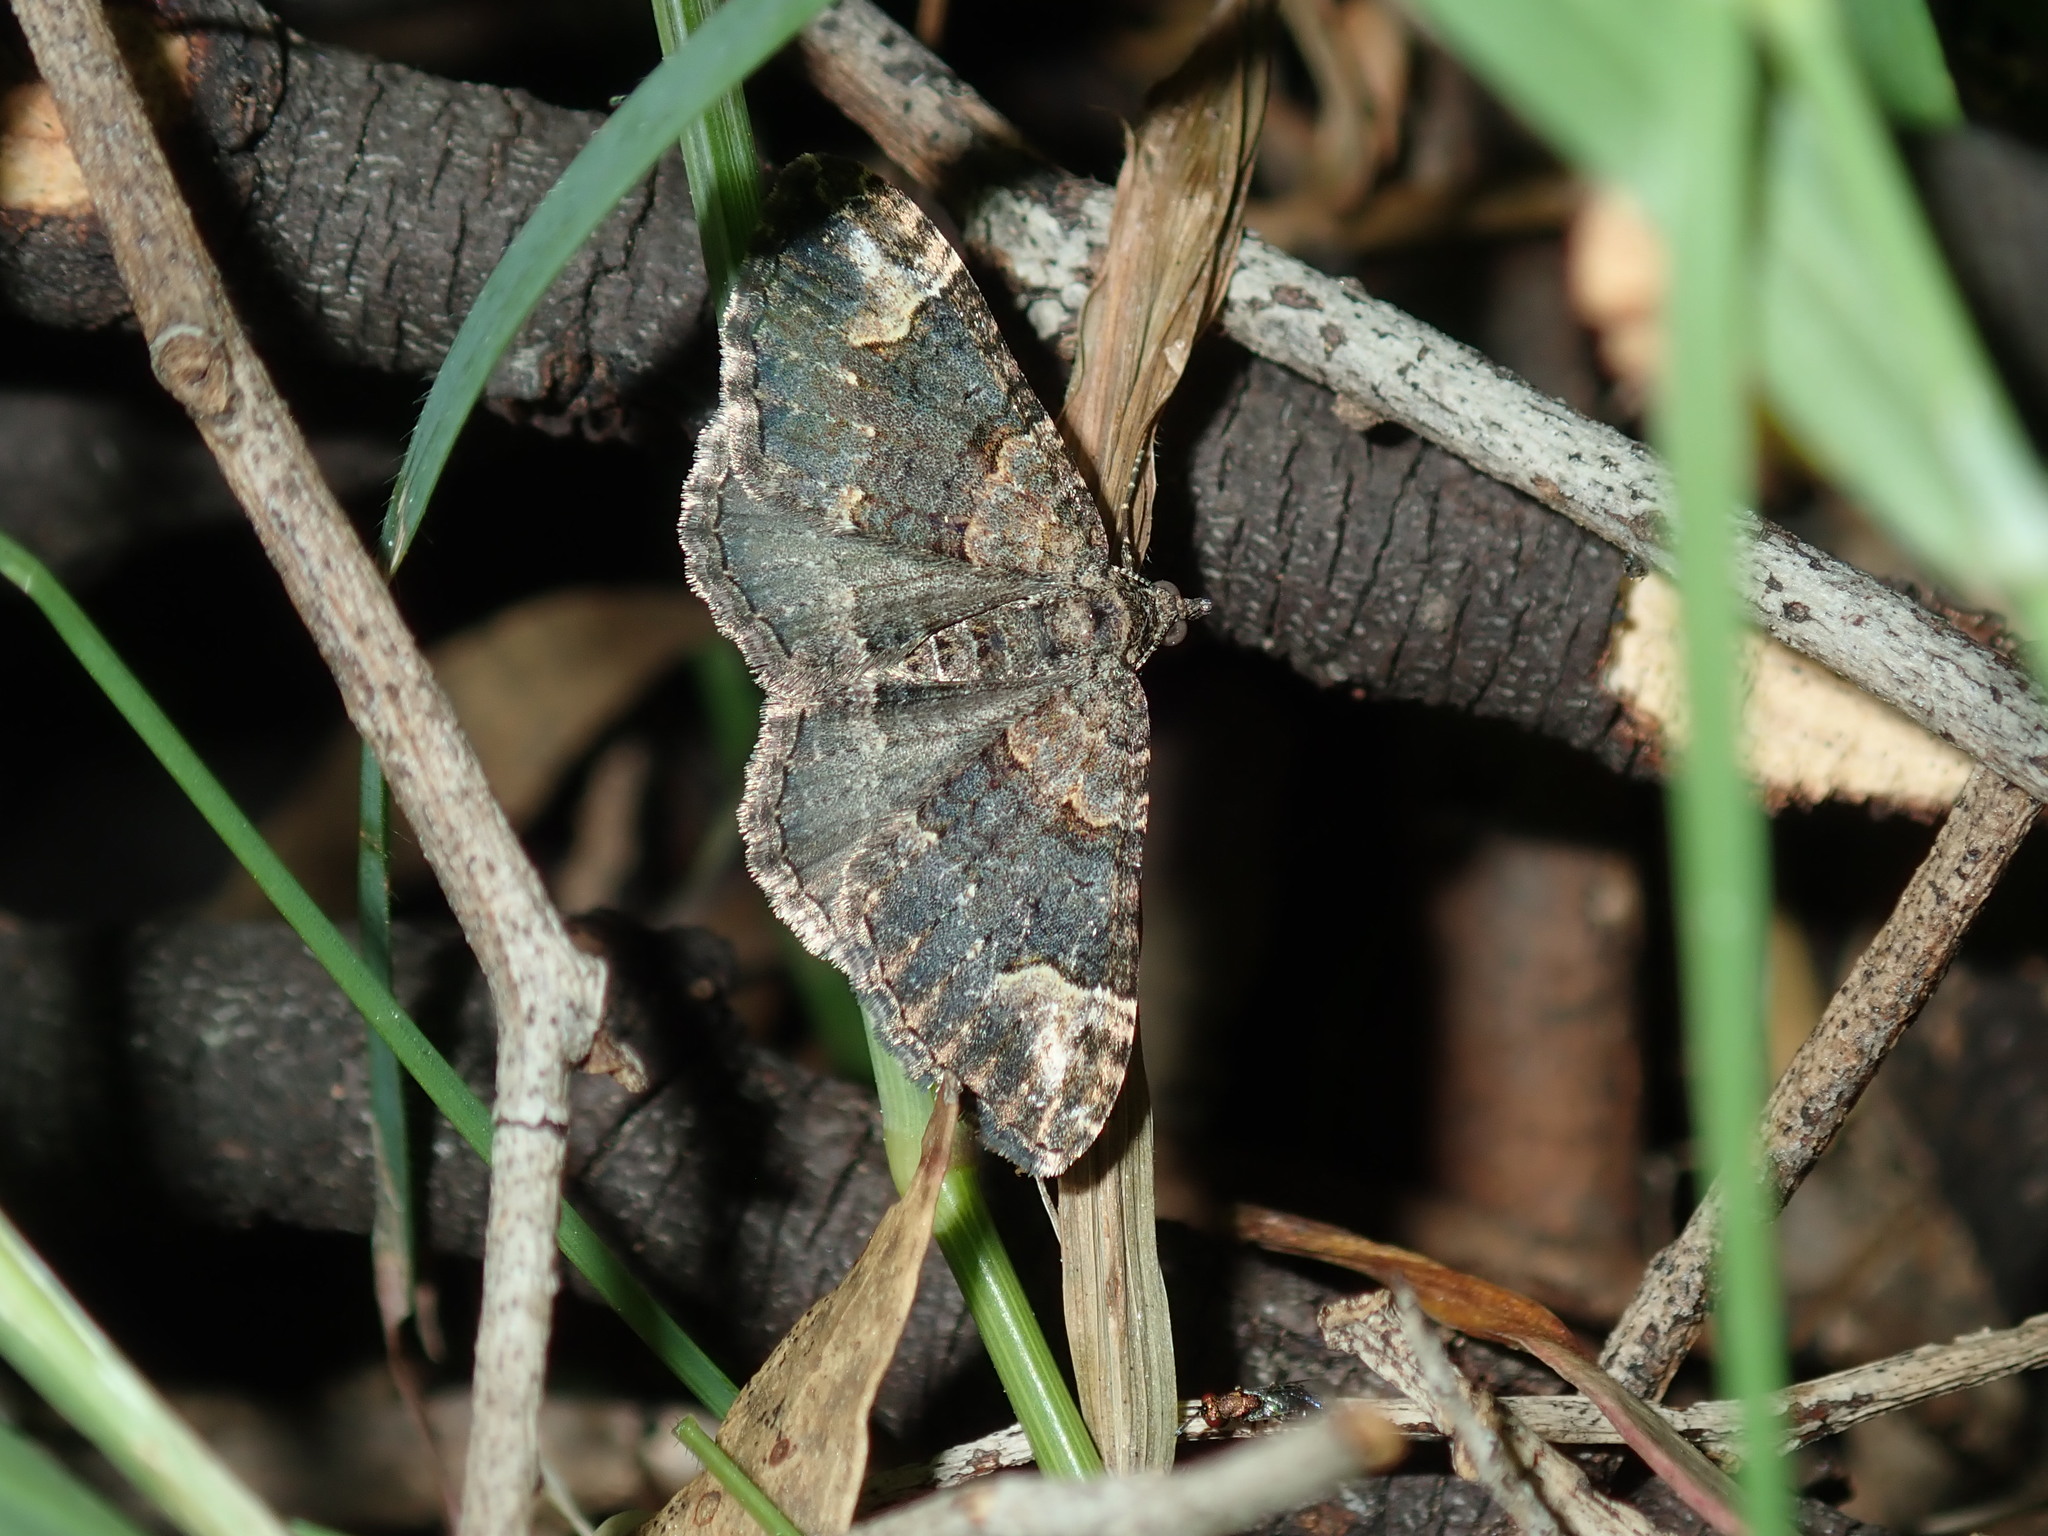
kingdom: Animalia
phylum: Arthropoda
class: Insecta
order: Lepidoptera
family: Geometridae
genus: Epyaxa
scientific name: Epyaxa sodaliata
